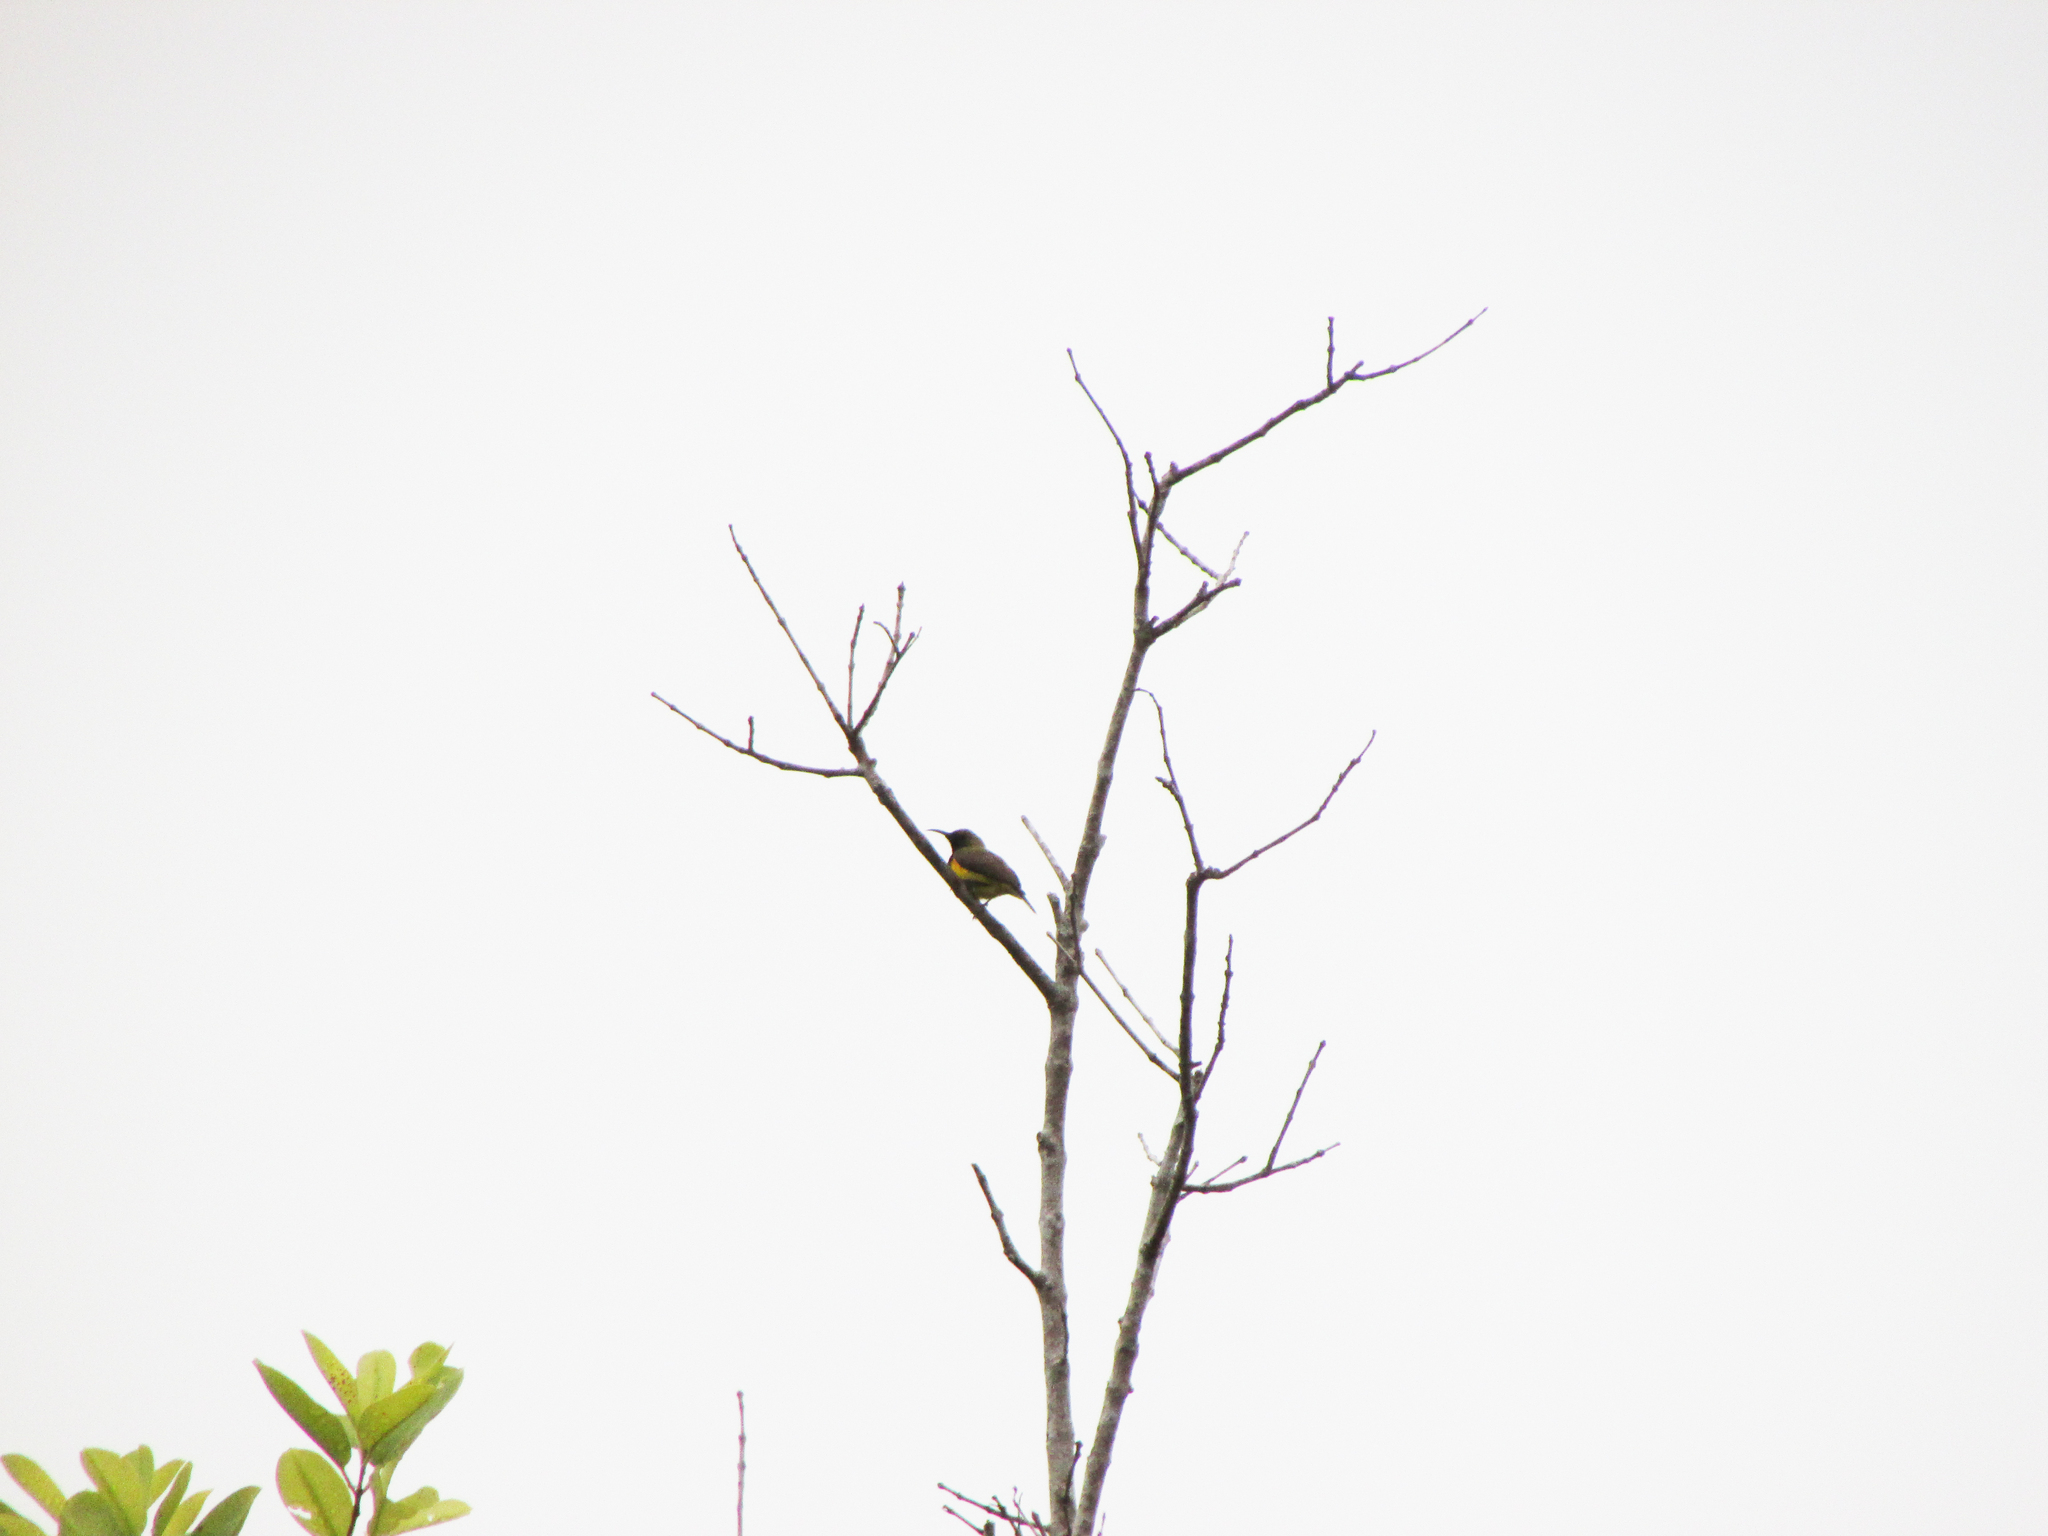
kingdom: Animalia
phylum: Chordata
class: Aves
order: Passeriformes
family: Nectariniidae
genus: Cinnyris
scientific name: Cinnyris jugularis
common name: Olive-backed sunbird
